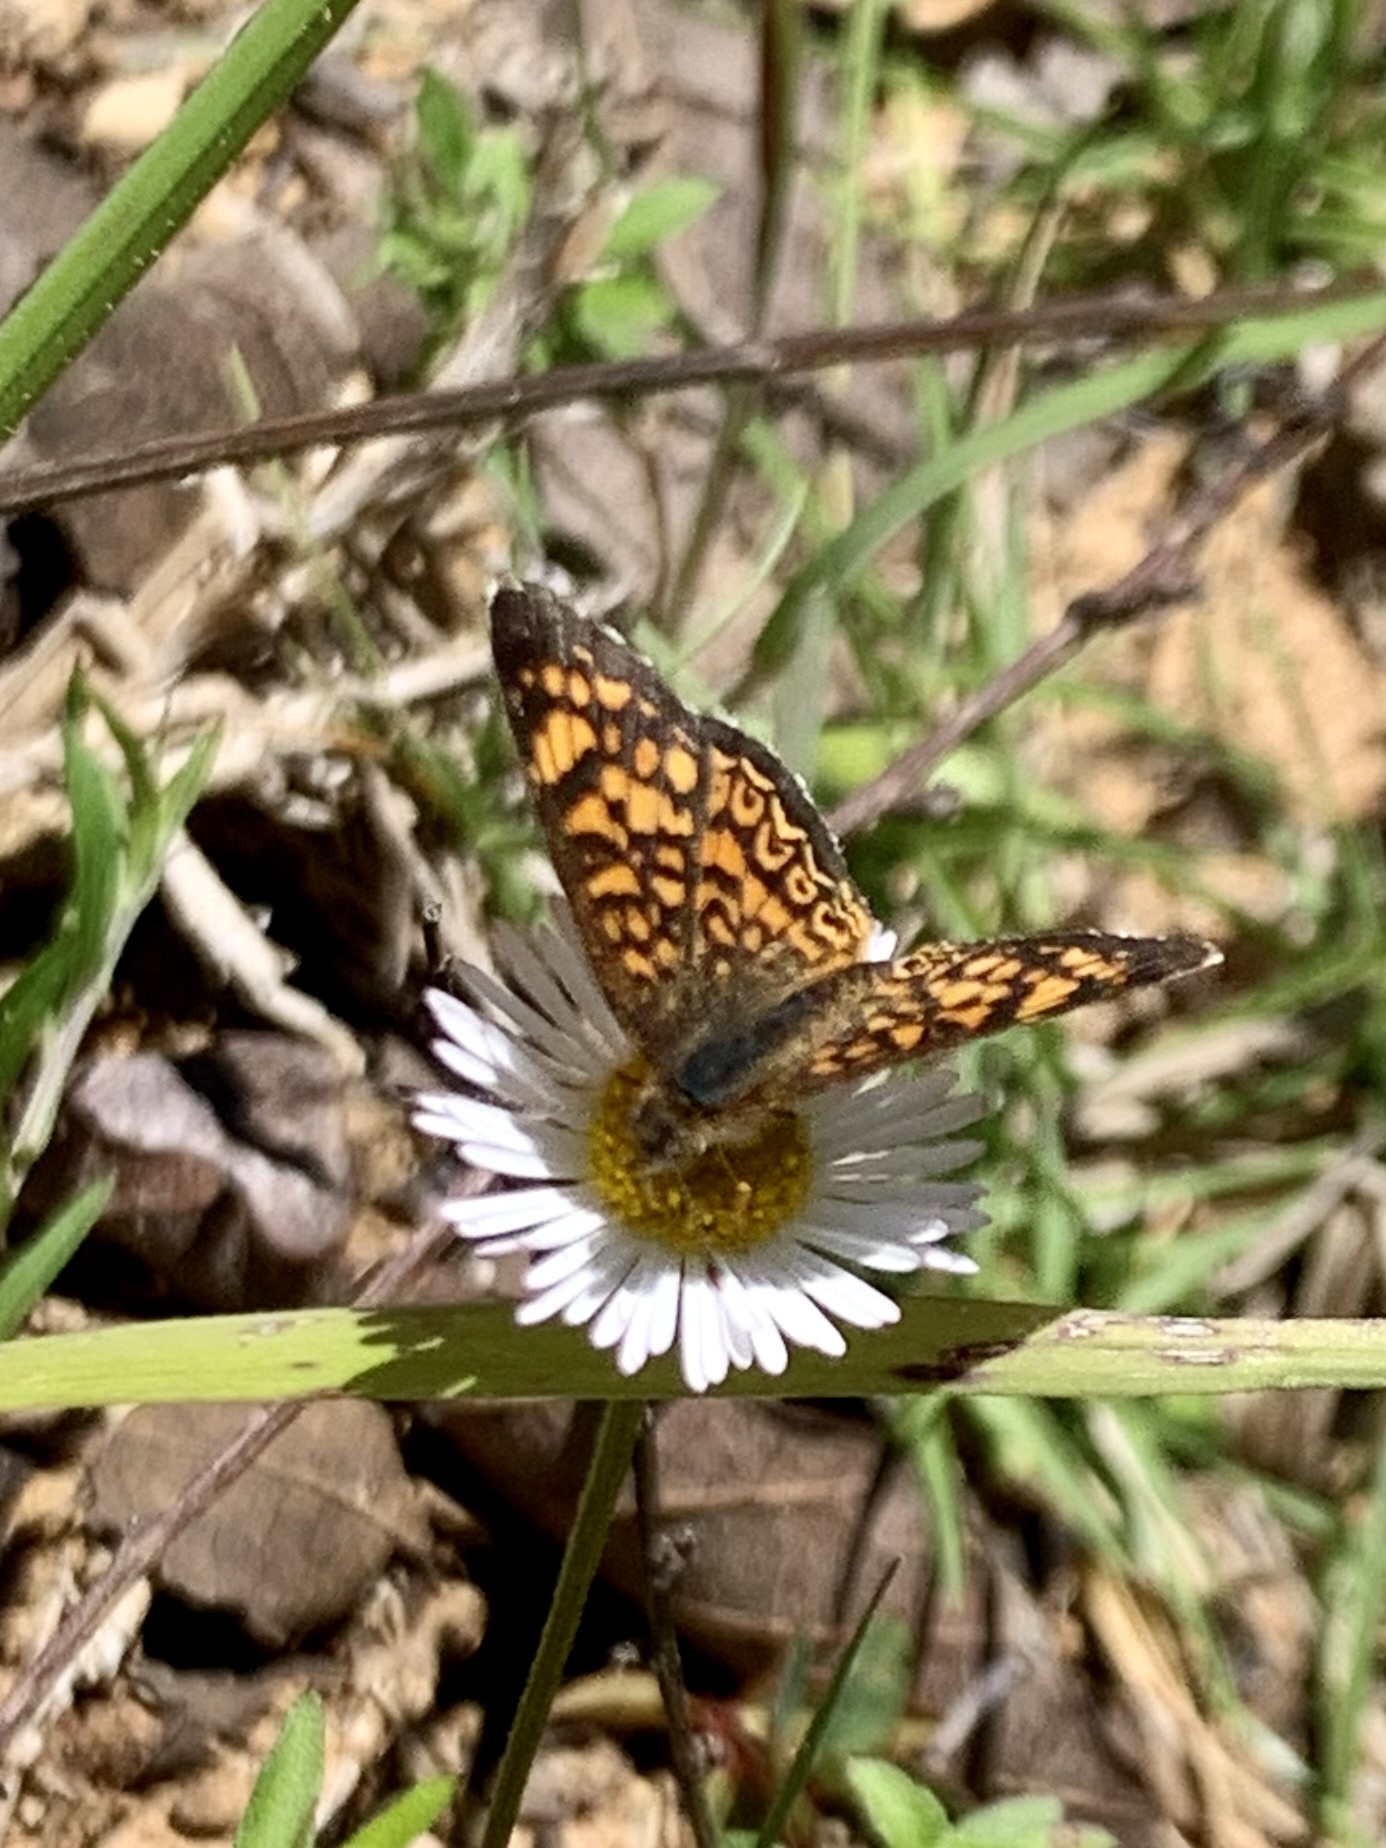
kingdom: Animalia
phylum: Arthropoda
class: Insecta
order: Lepidoptera
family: Nymphalidae
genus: Phyciodes
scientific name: Phyciodes vesta
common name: Vesta crescent
